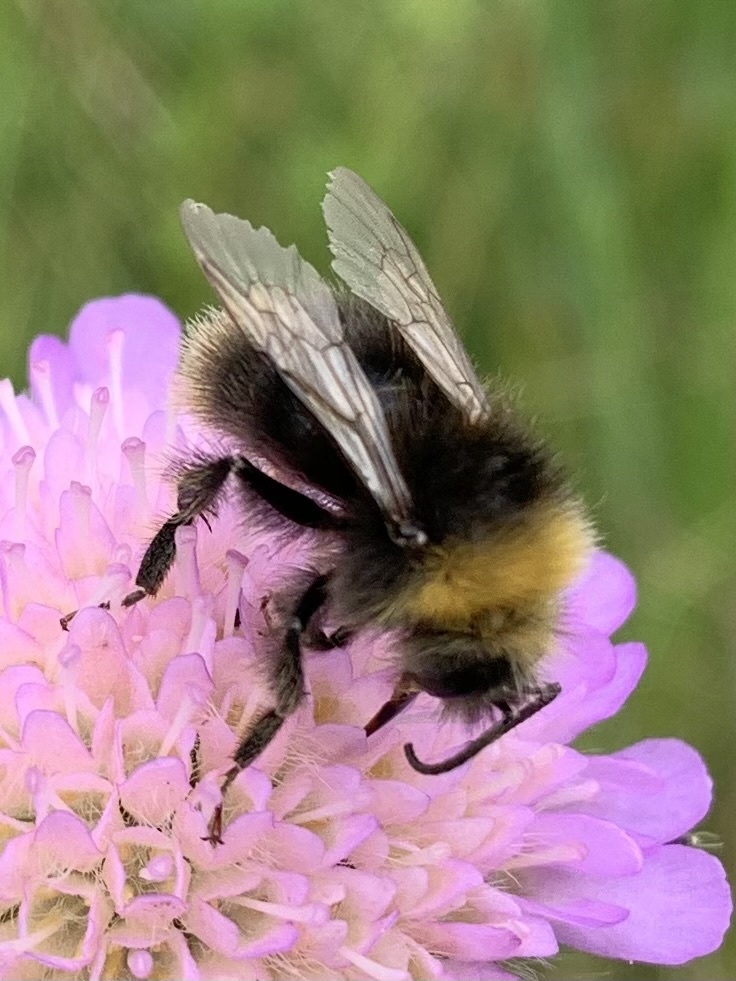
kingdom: Animalia
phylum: Arthropoda
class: Insecta
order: Hymenoptera
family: Apidae
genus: Bombus
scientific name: Bombus pratorum
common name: Early humble-bee
